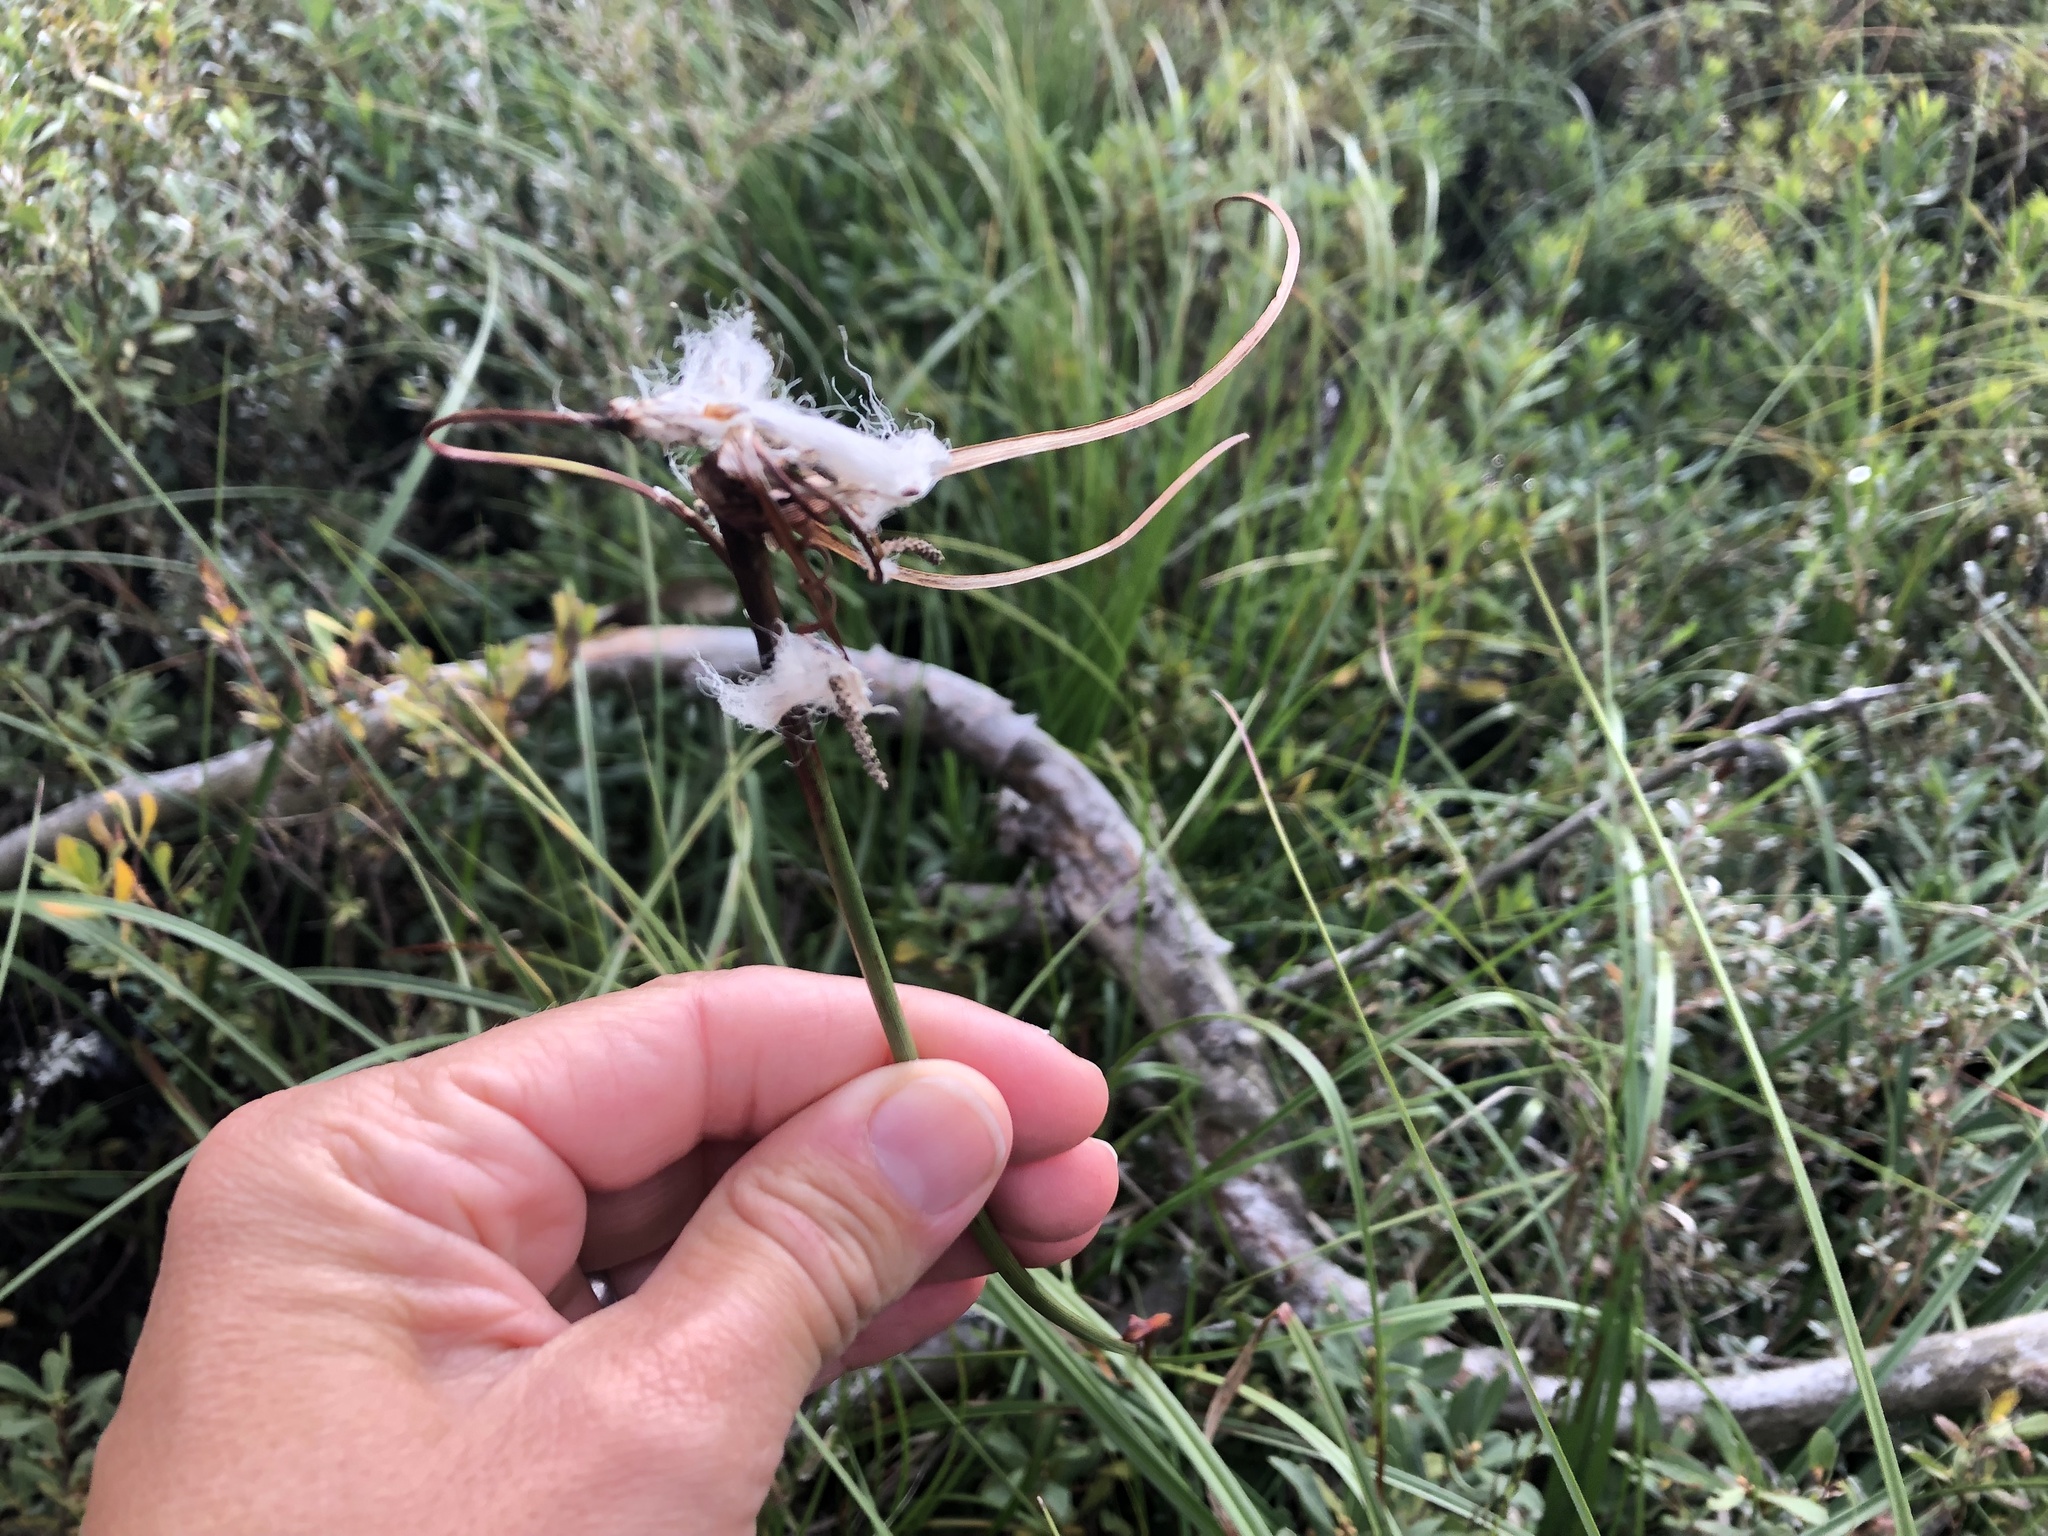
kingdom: Plantae
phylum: Tracheophyta
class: Liliopsida
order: Poales
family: Cyperaceae
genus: Eriophorum
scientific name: Eriophorum angustifolium
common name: Common cottongrass
